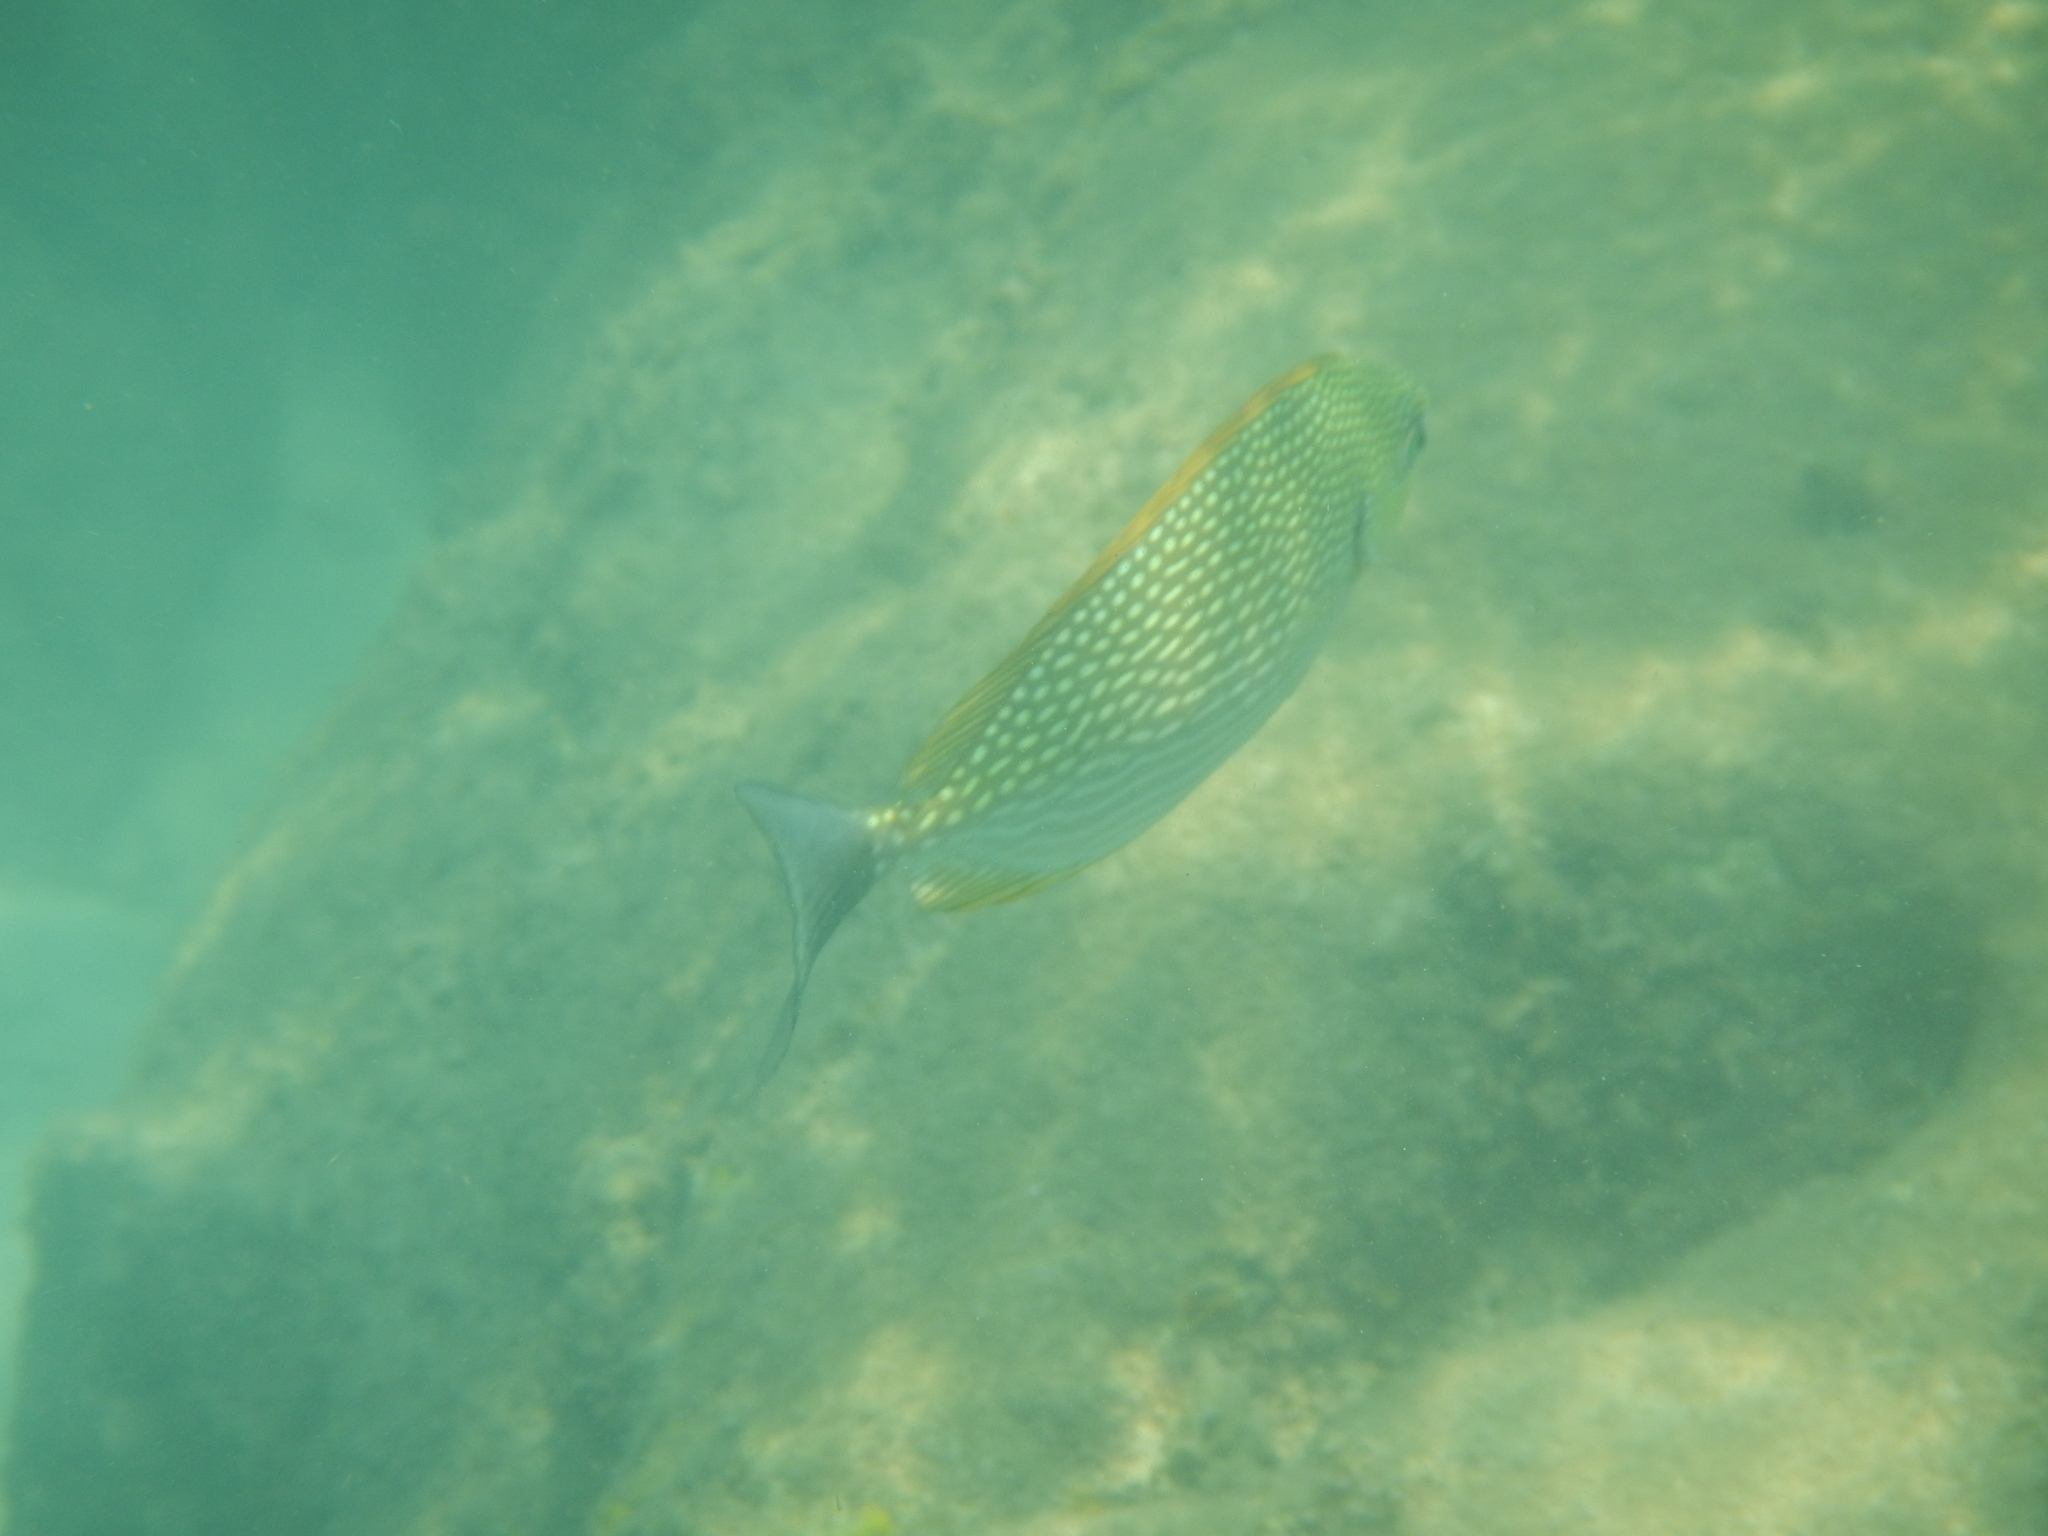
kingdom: Animalia
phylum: Chordata
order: Perciformes
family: Siganidae
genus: Siganus
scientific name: Siganus javus
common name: Java rabbitfish
